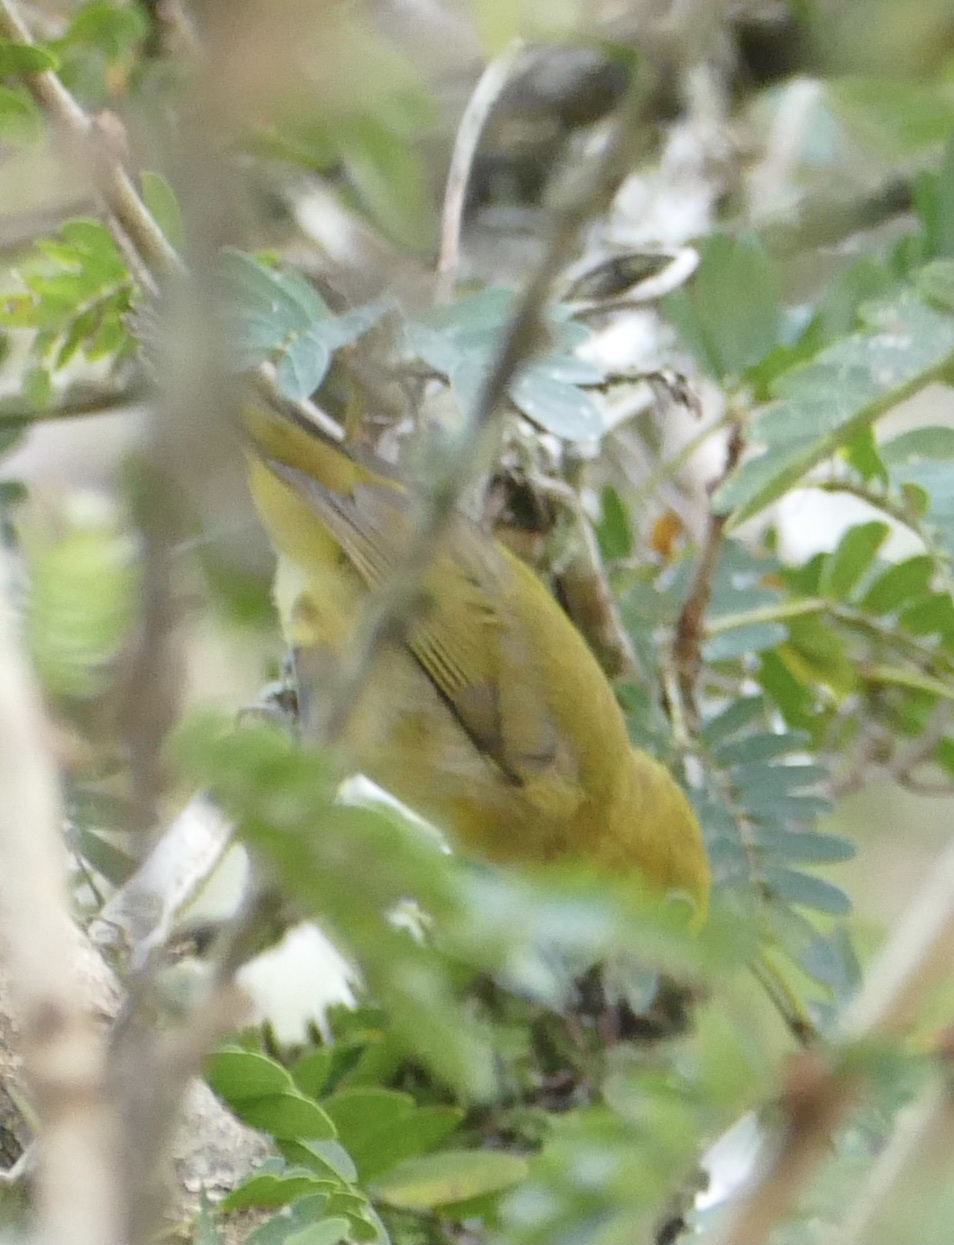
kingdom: Animalia
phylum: Chordata
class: Aves
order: Passeriformes
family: Zosteropidae
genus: Zosterops
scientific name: Zosterops senegalensis
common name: African yellow white-eye
